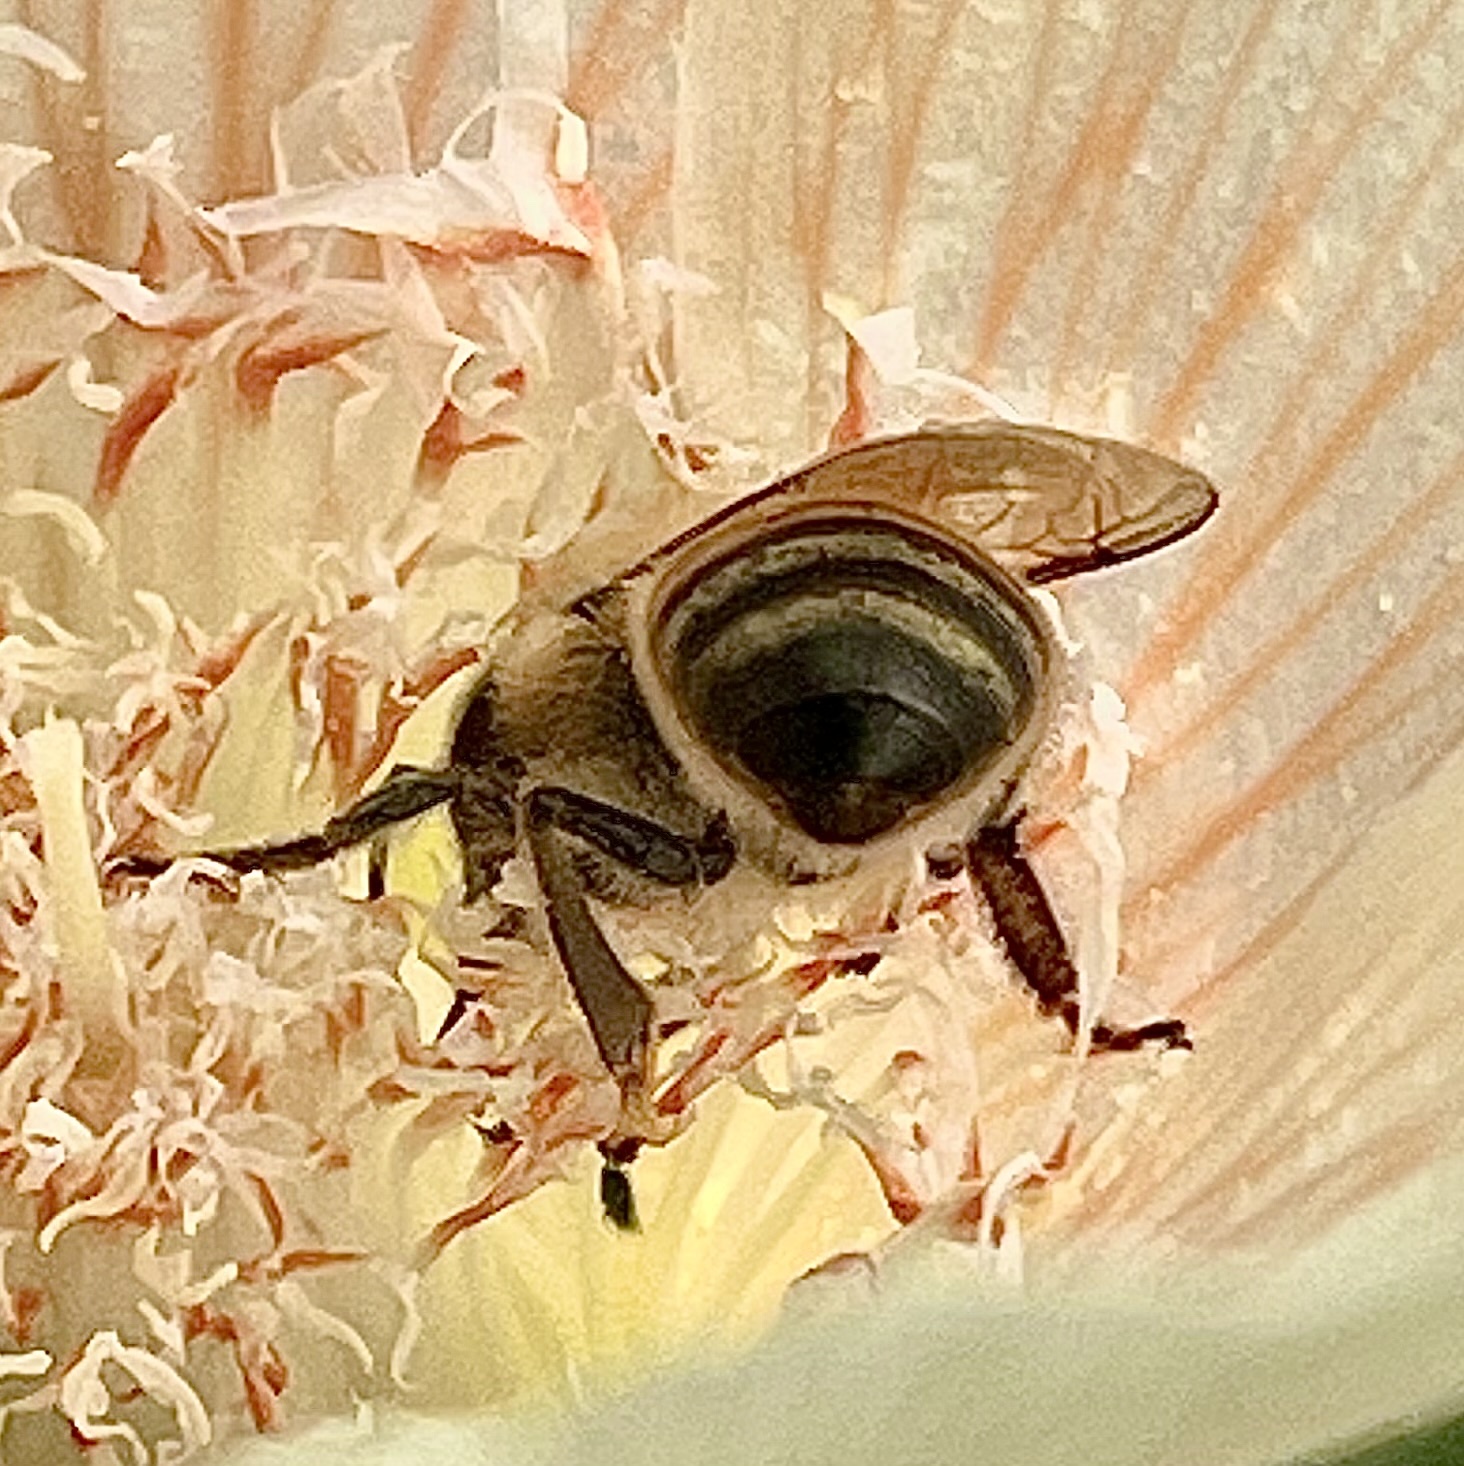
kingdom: Animalia
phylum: Arthropoda
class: Insecta
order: Hymenoptera
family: Apidae
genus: Apis
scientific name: Apis mellifera
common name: Honey bee
